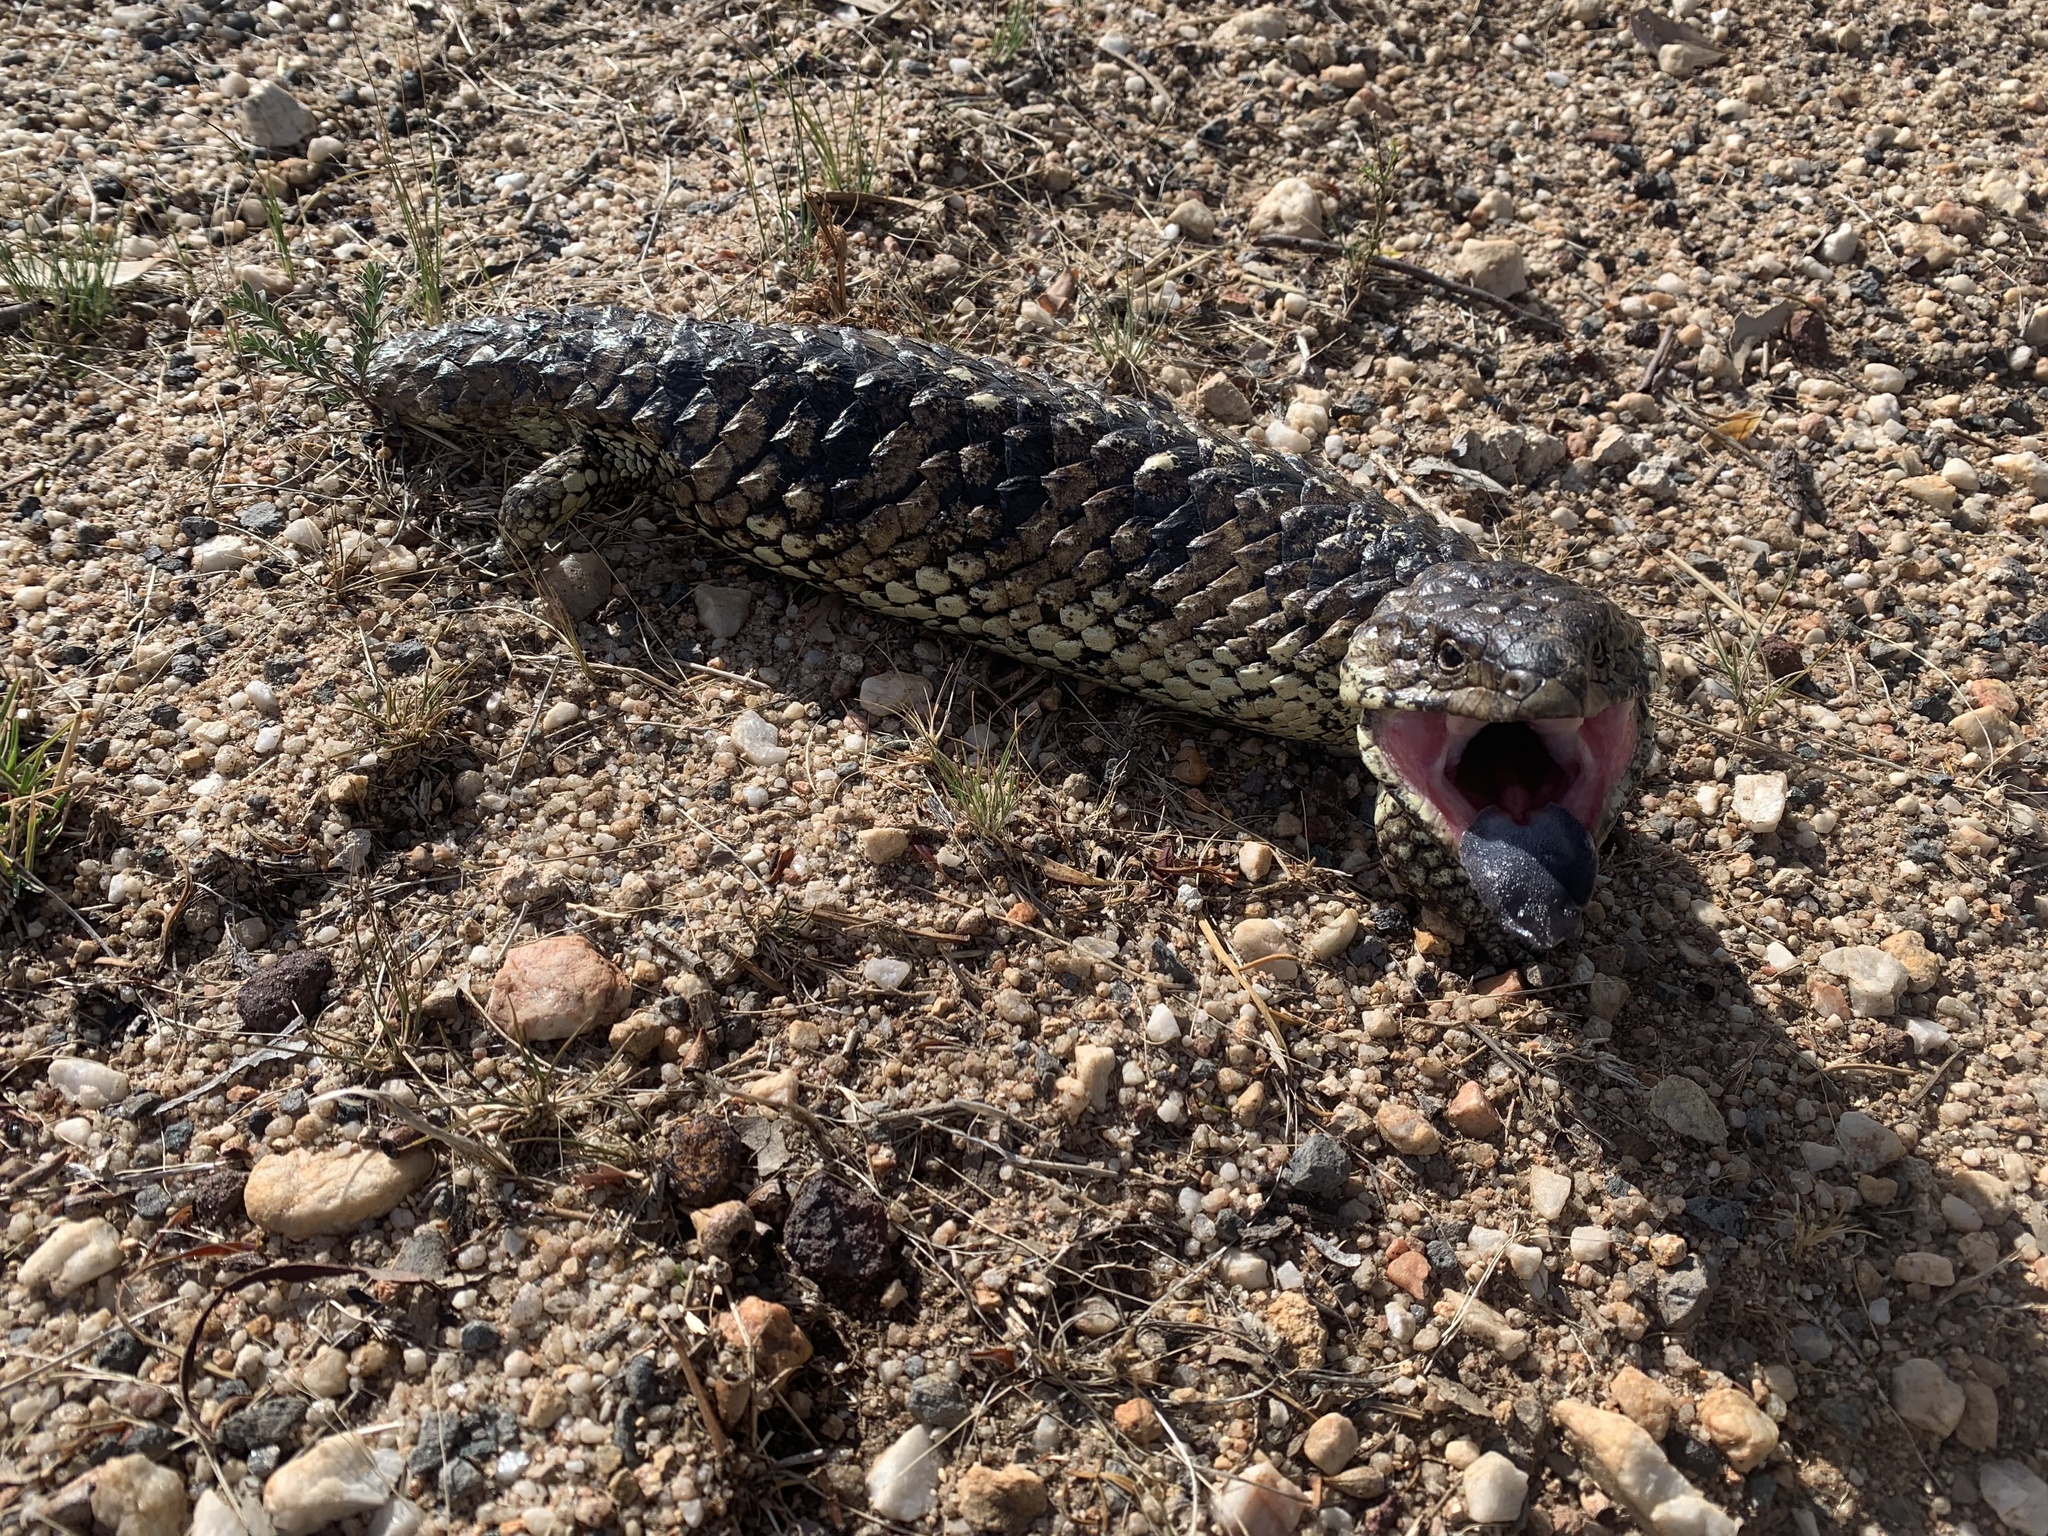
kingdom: Animalia
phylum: Chordata
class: Squamata
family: Scincidae
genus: Tiliqua
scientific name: Tiliqua rugosa
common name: Pinecone lizard
